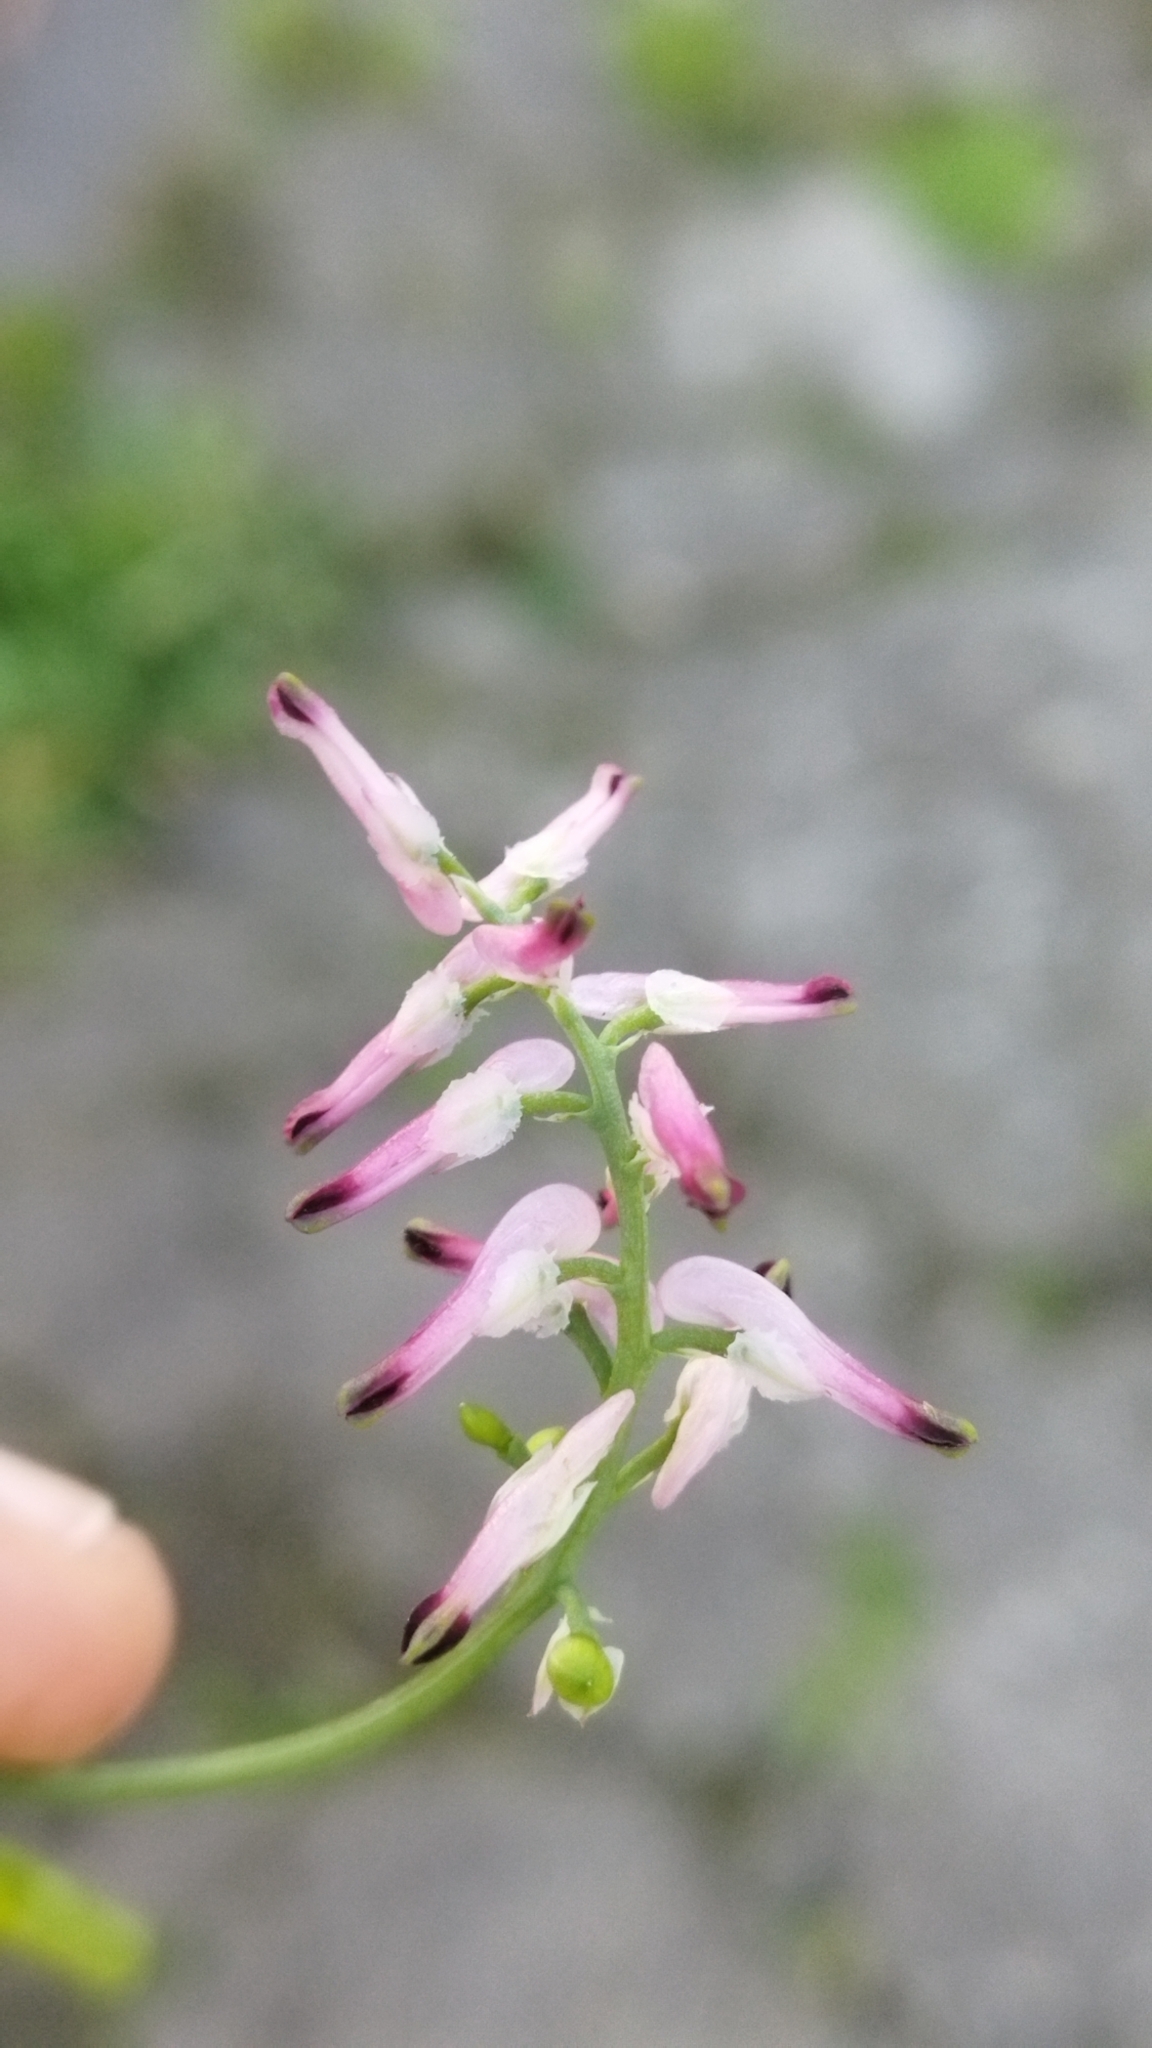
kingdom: Plantae
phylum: Tracheophyta
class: Magnoliopsida
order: Ranunculales
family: Papaveraceae
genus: Fumaria
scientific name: Fumaria muralis
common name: Common ramping-fumitory
